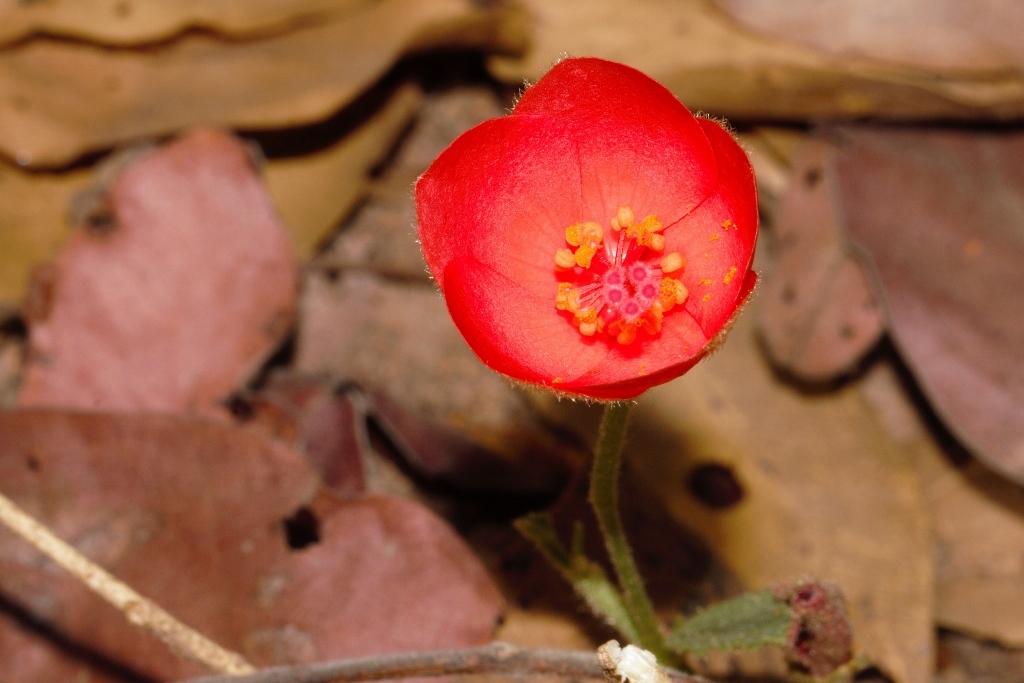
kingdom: Plantae
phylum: Tracheophyta
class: Magnoliopsida
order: Malvales
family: Malvaceae
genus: Hibiscus
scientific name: Hibiscus rhodanthus
